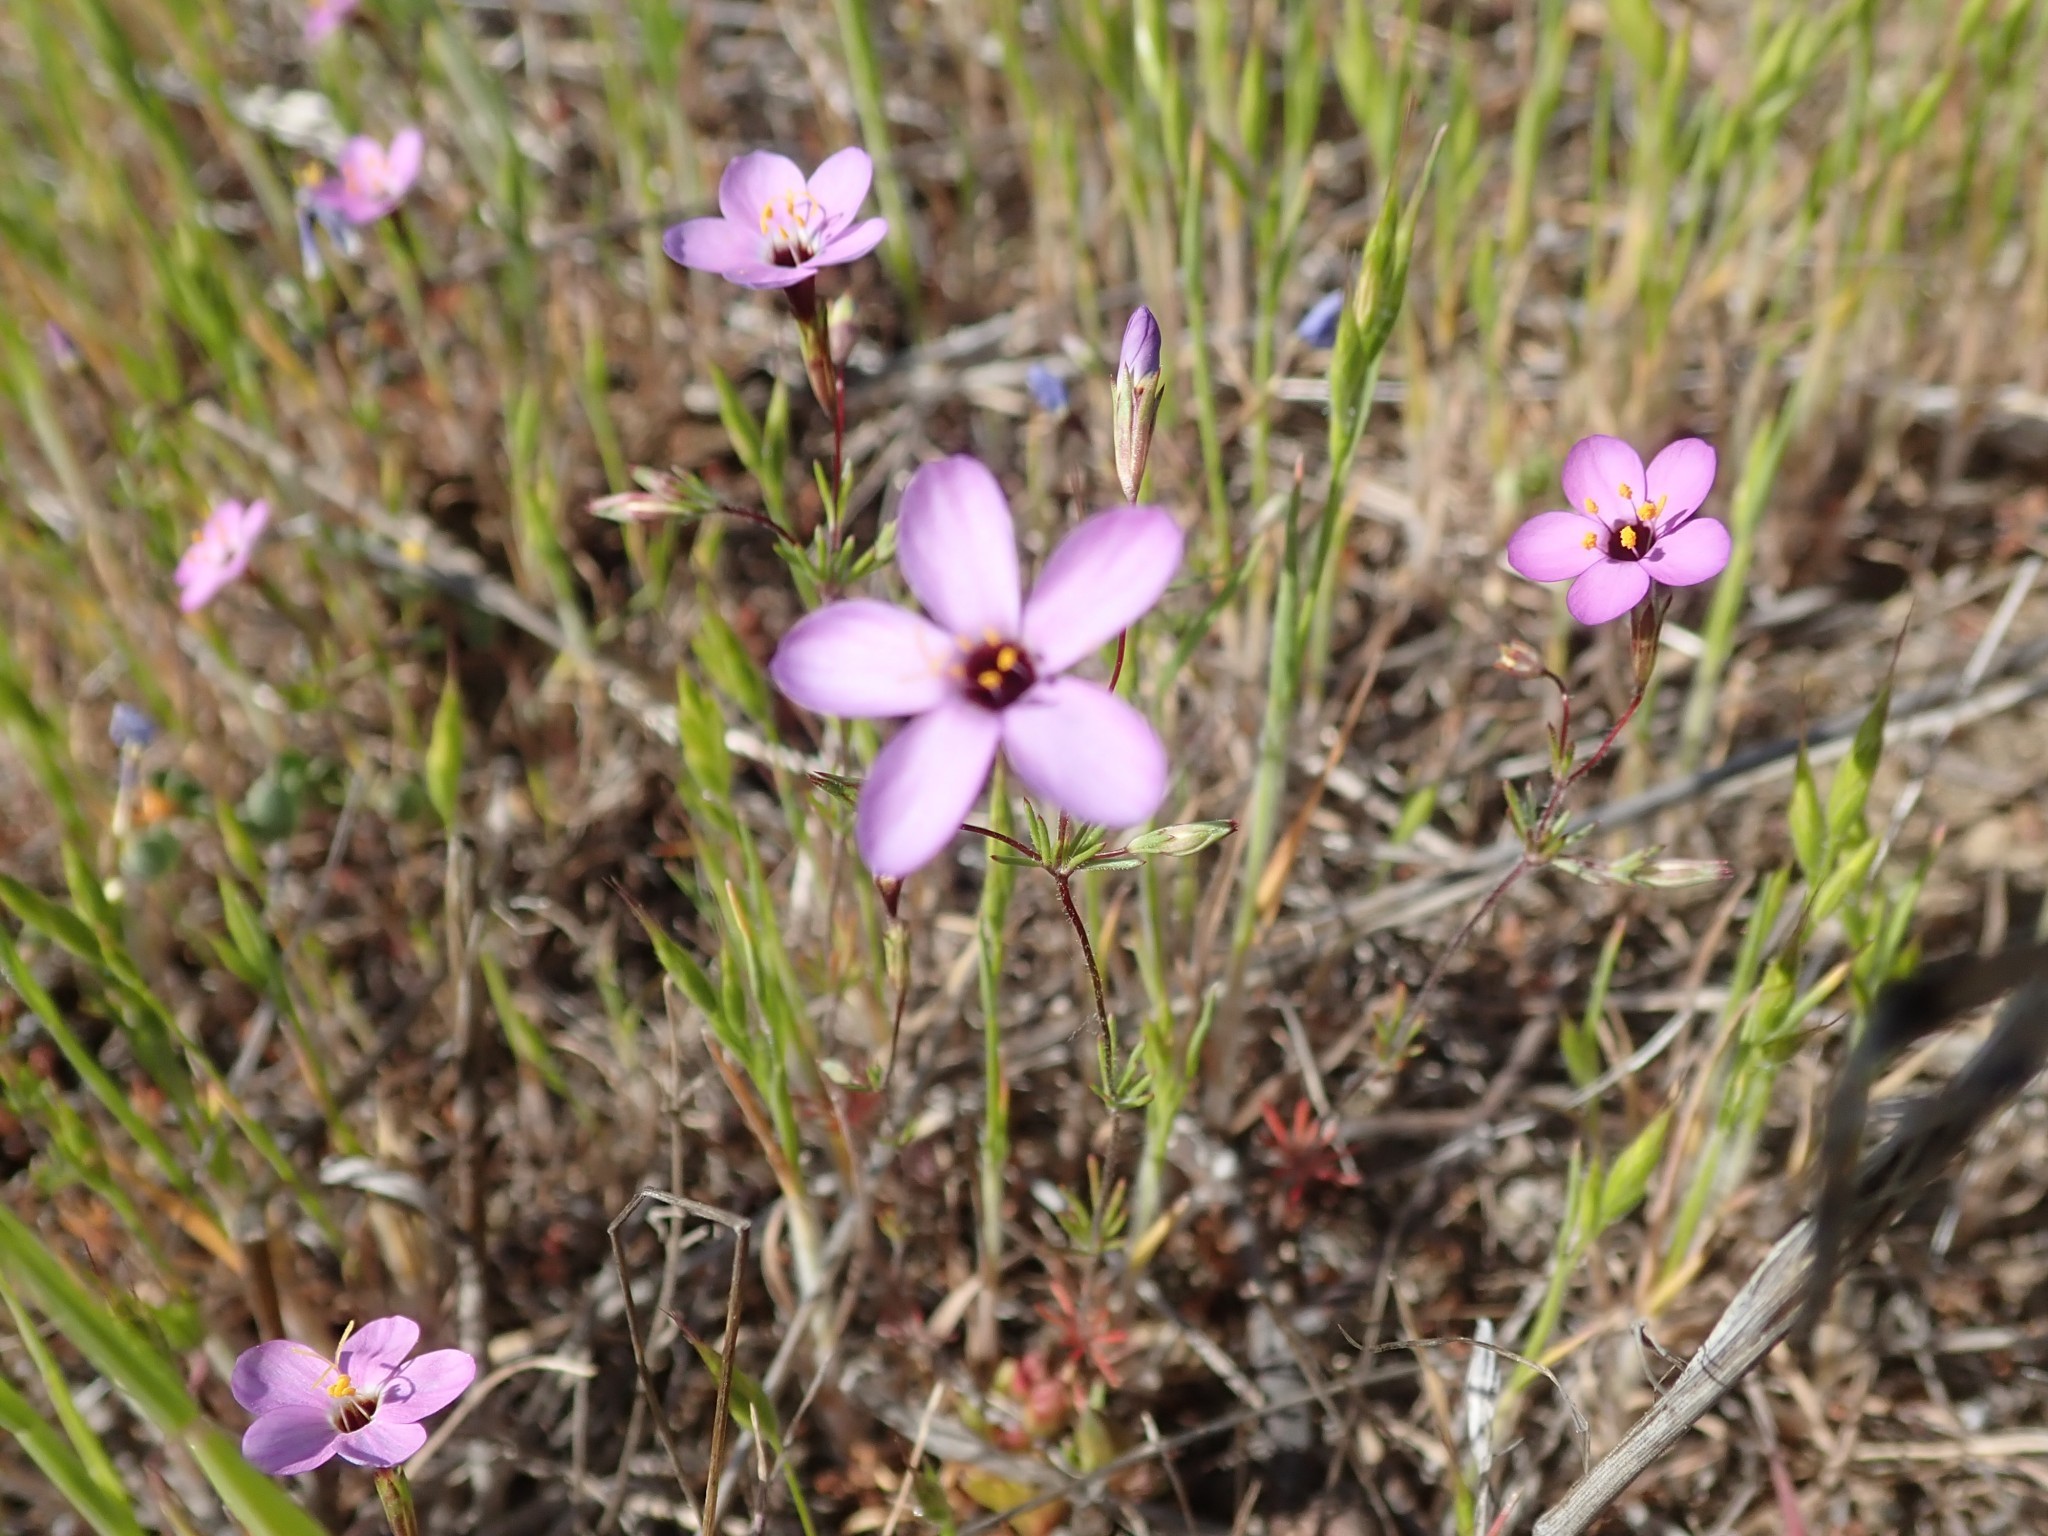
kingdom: Plantae
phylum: Tracheophyta
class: Magnoliopsida
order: Ericales
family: Polemoniaceae
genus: Leptosiphon
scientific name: Leptosiphon ambiguus
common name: Serpentine linanthus
